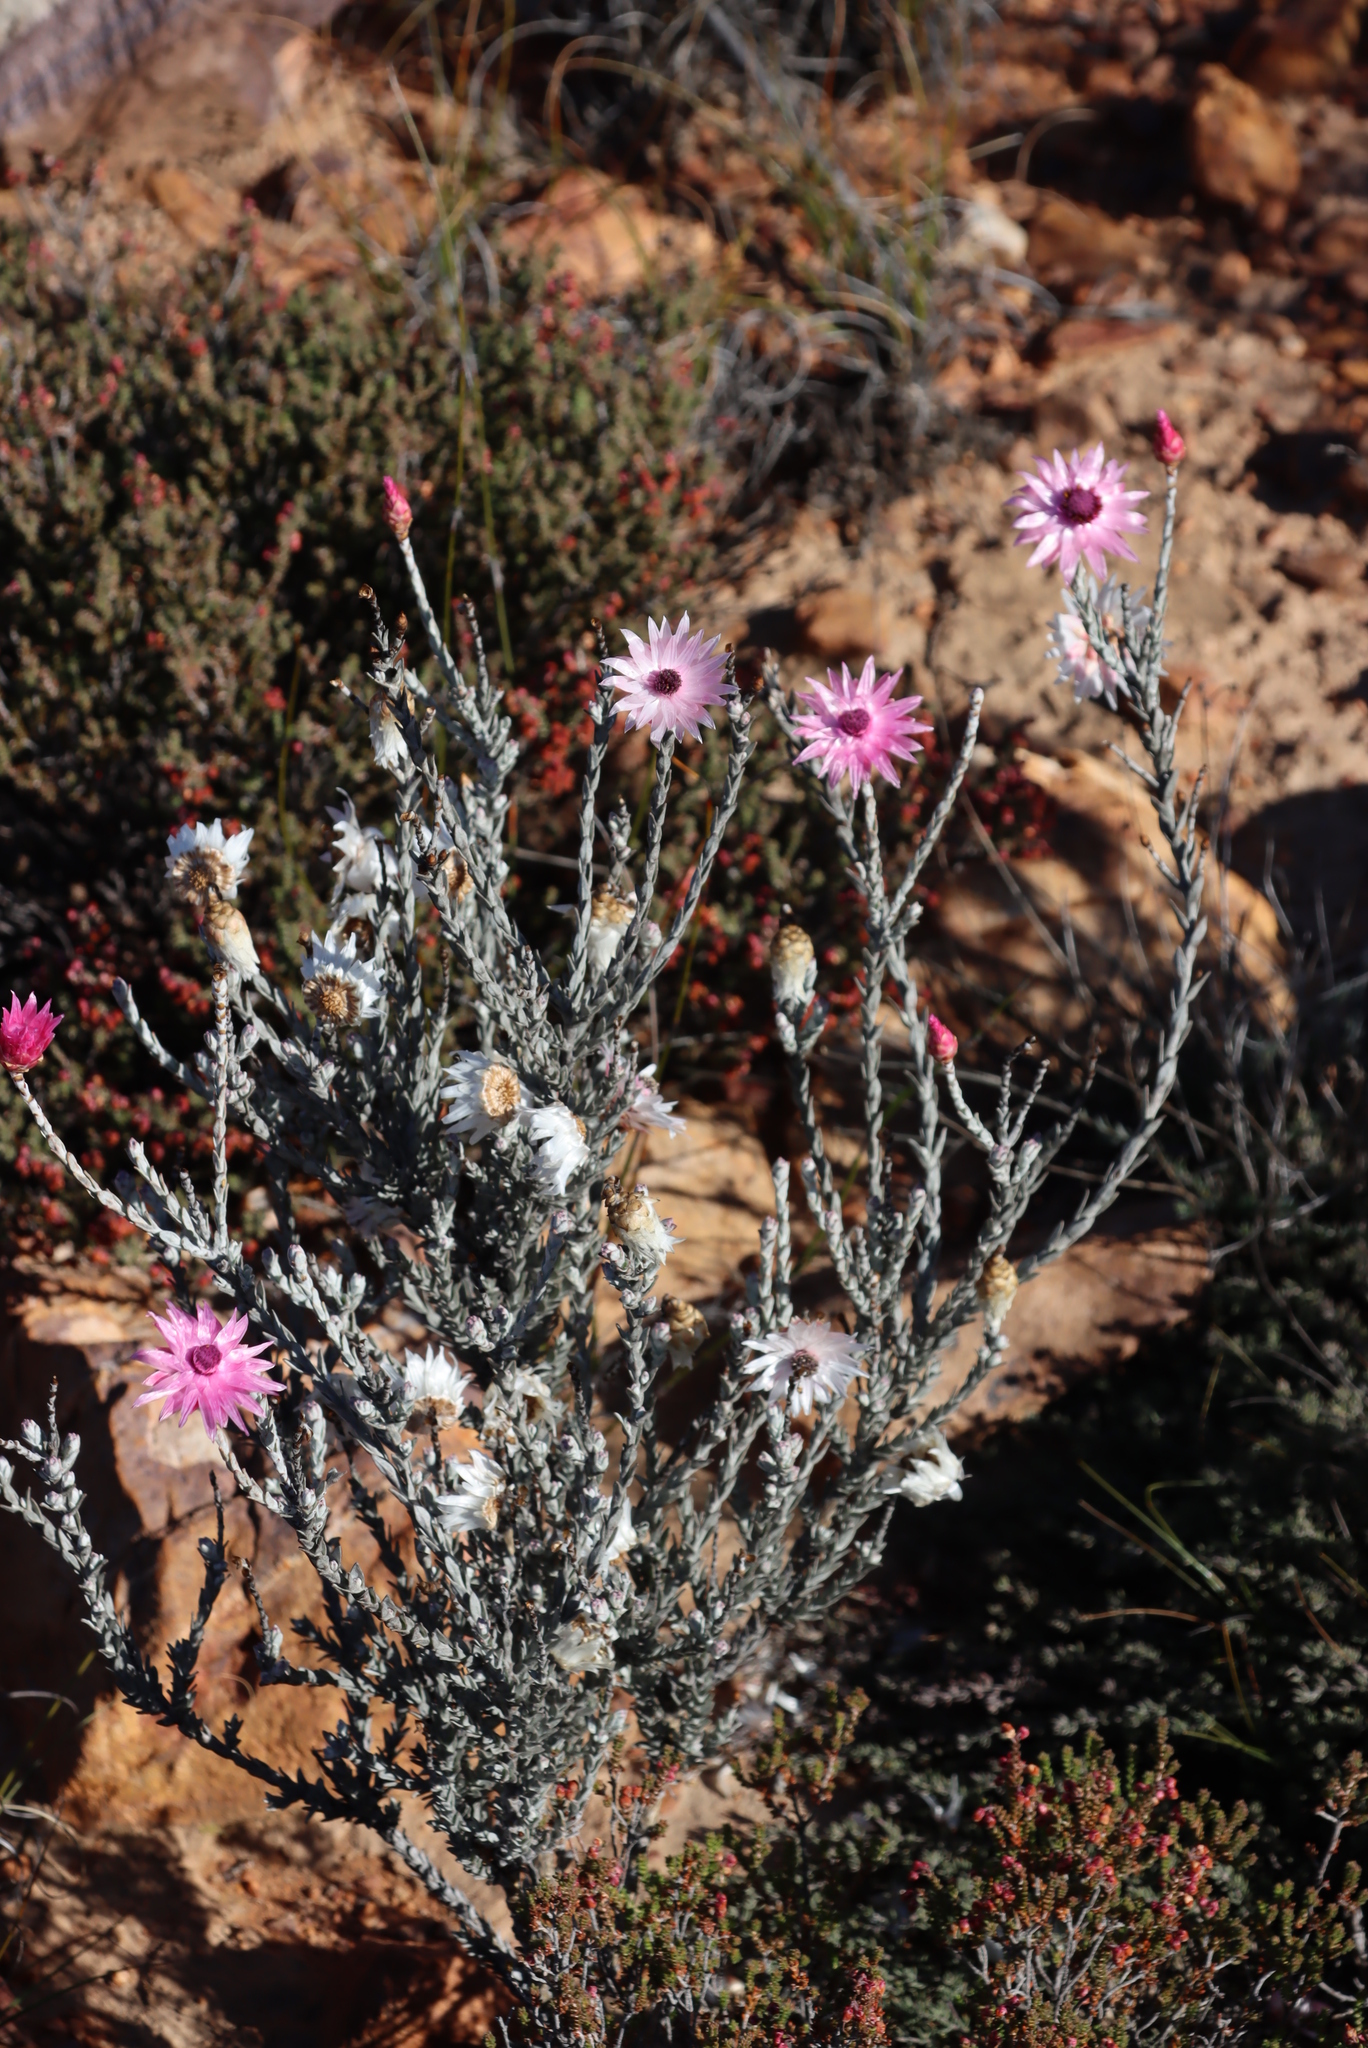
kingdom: Plantae
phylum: Tracheophyta
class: Magnoliopsida
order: Asterales
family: Asteraceae
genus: Syncarpha
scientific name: Syncarpha canescens
